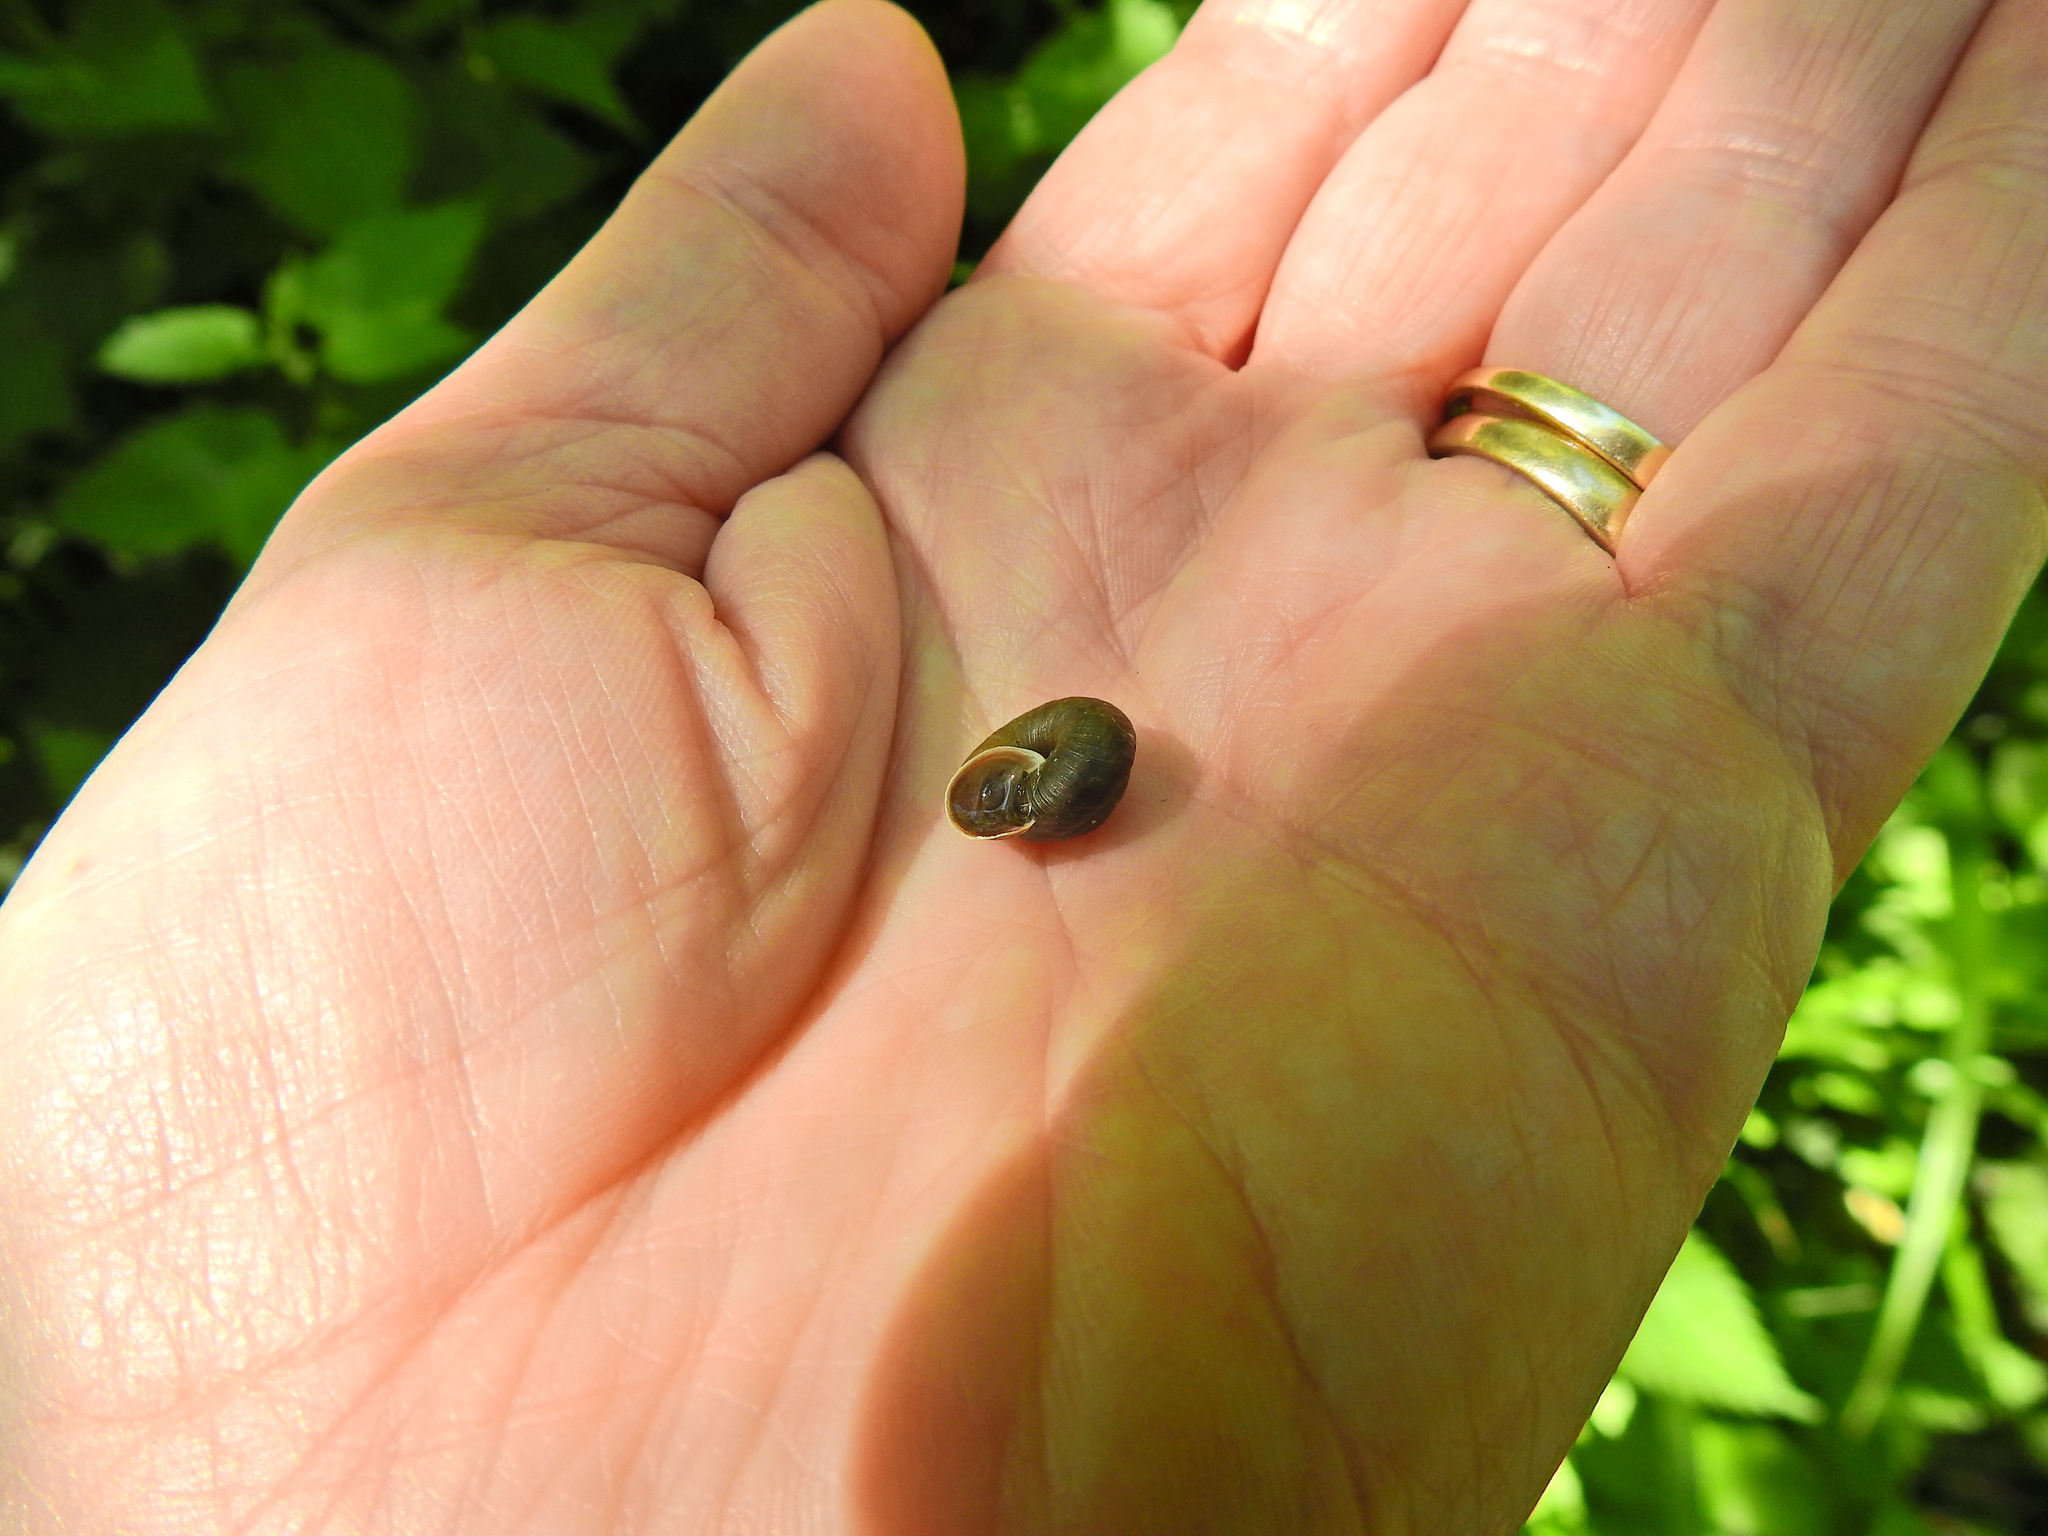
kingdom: Animalia
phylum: Mollusca
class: Gastropoda
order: Stylommatophora
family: Hygromiidae
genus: Trochulus
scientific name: Trochulus striolatus
